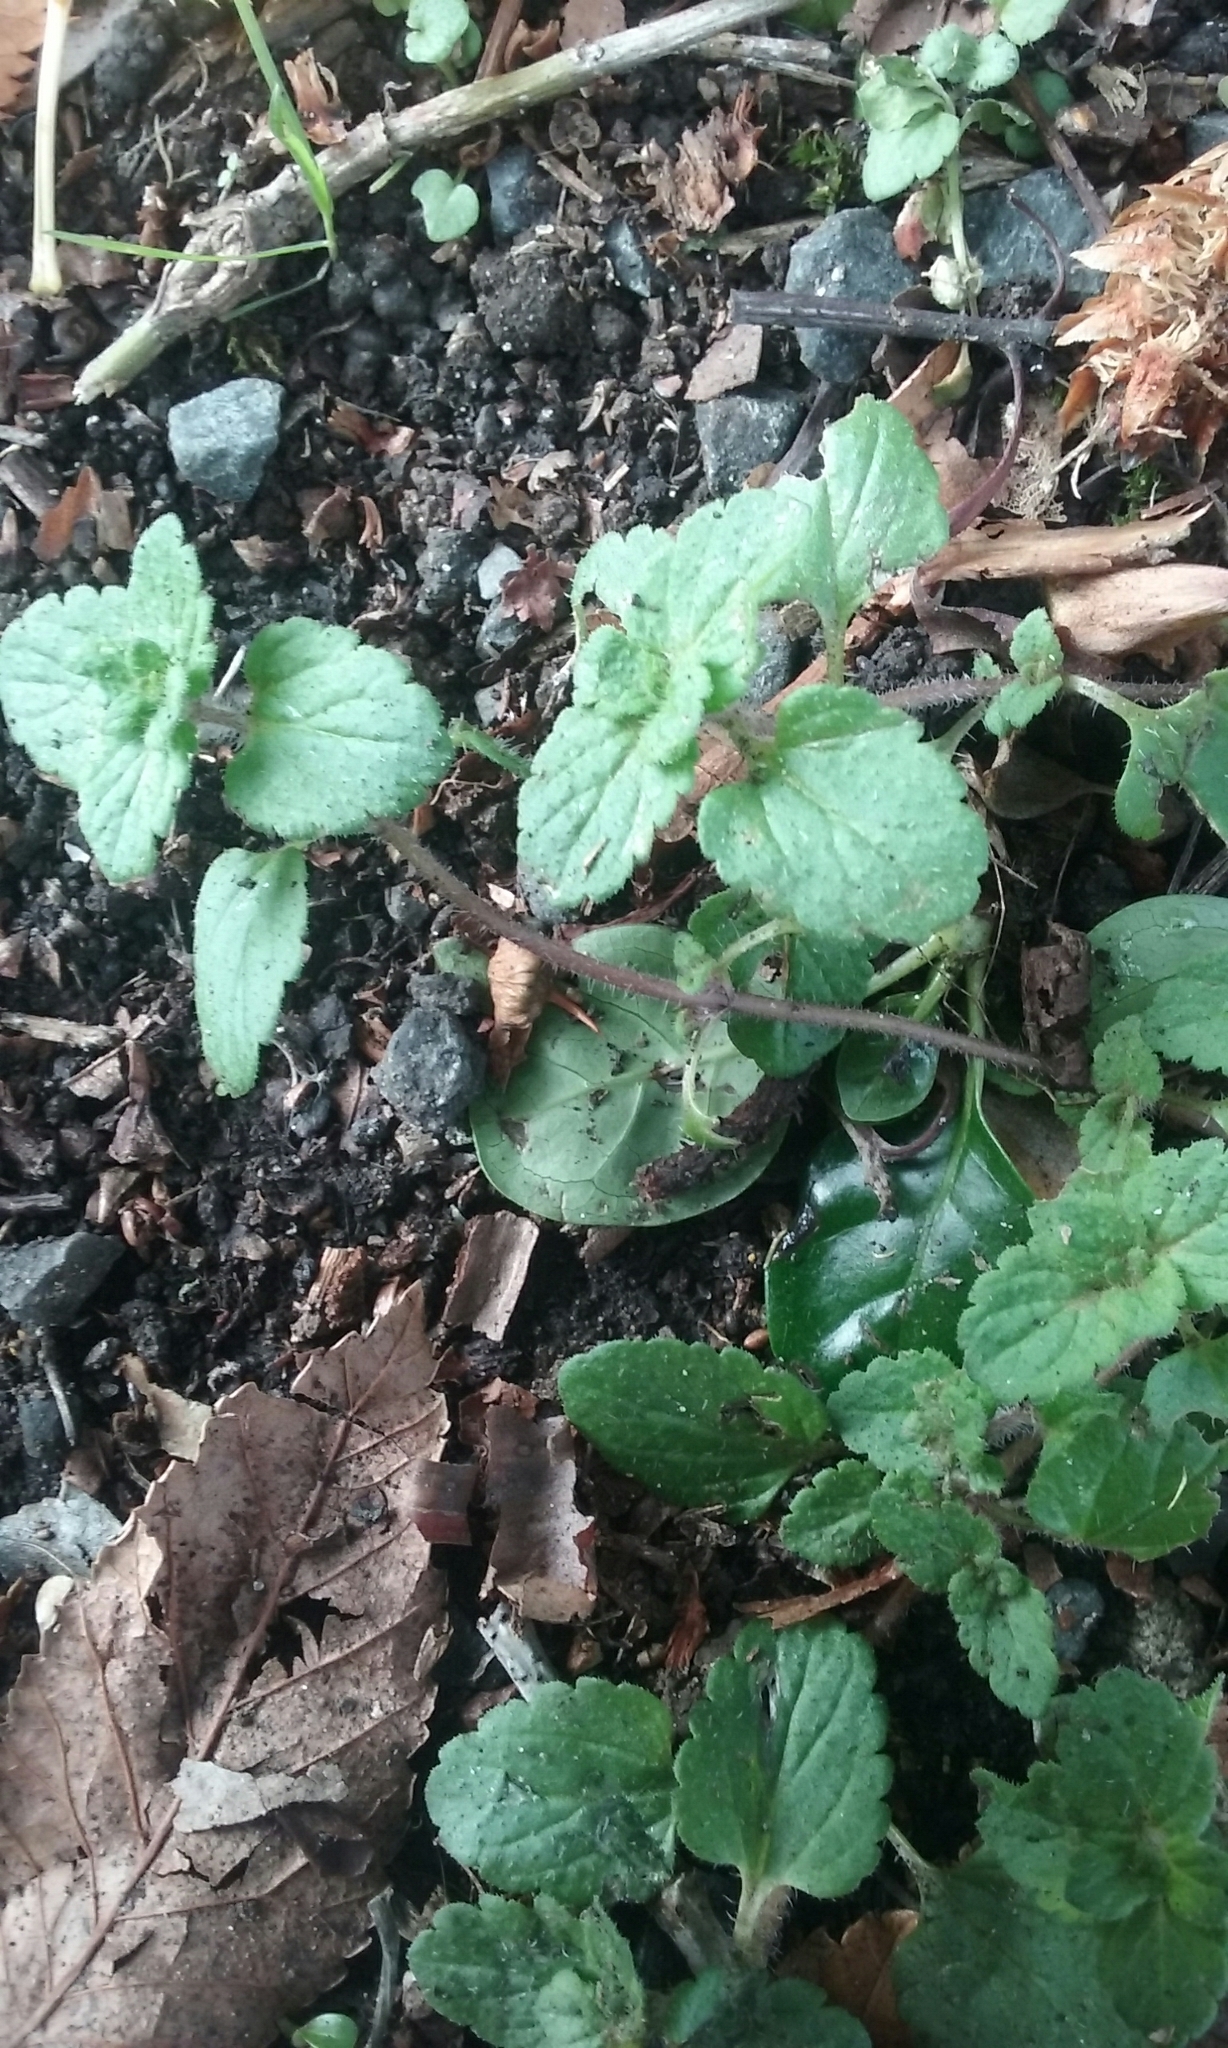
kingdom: Plantae
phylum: Tracheophyta
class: Magnoliopsida
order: Lamiales
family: Plantaginaceae
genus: Veronica
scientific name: Veronica persica
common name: Common field-speedwell
